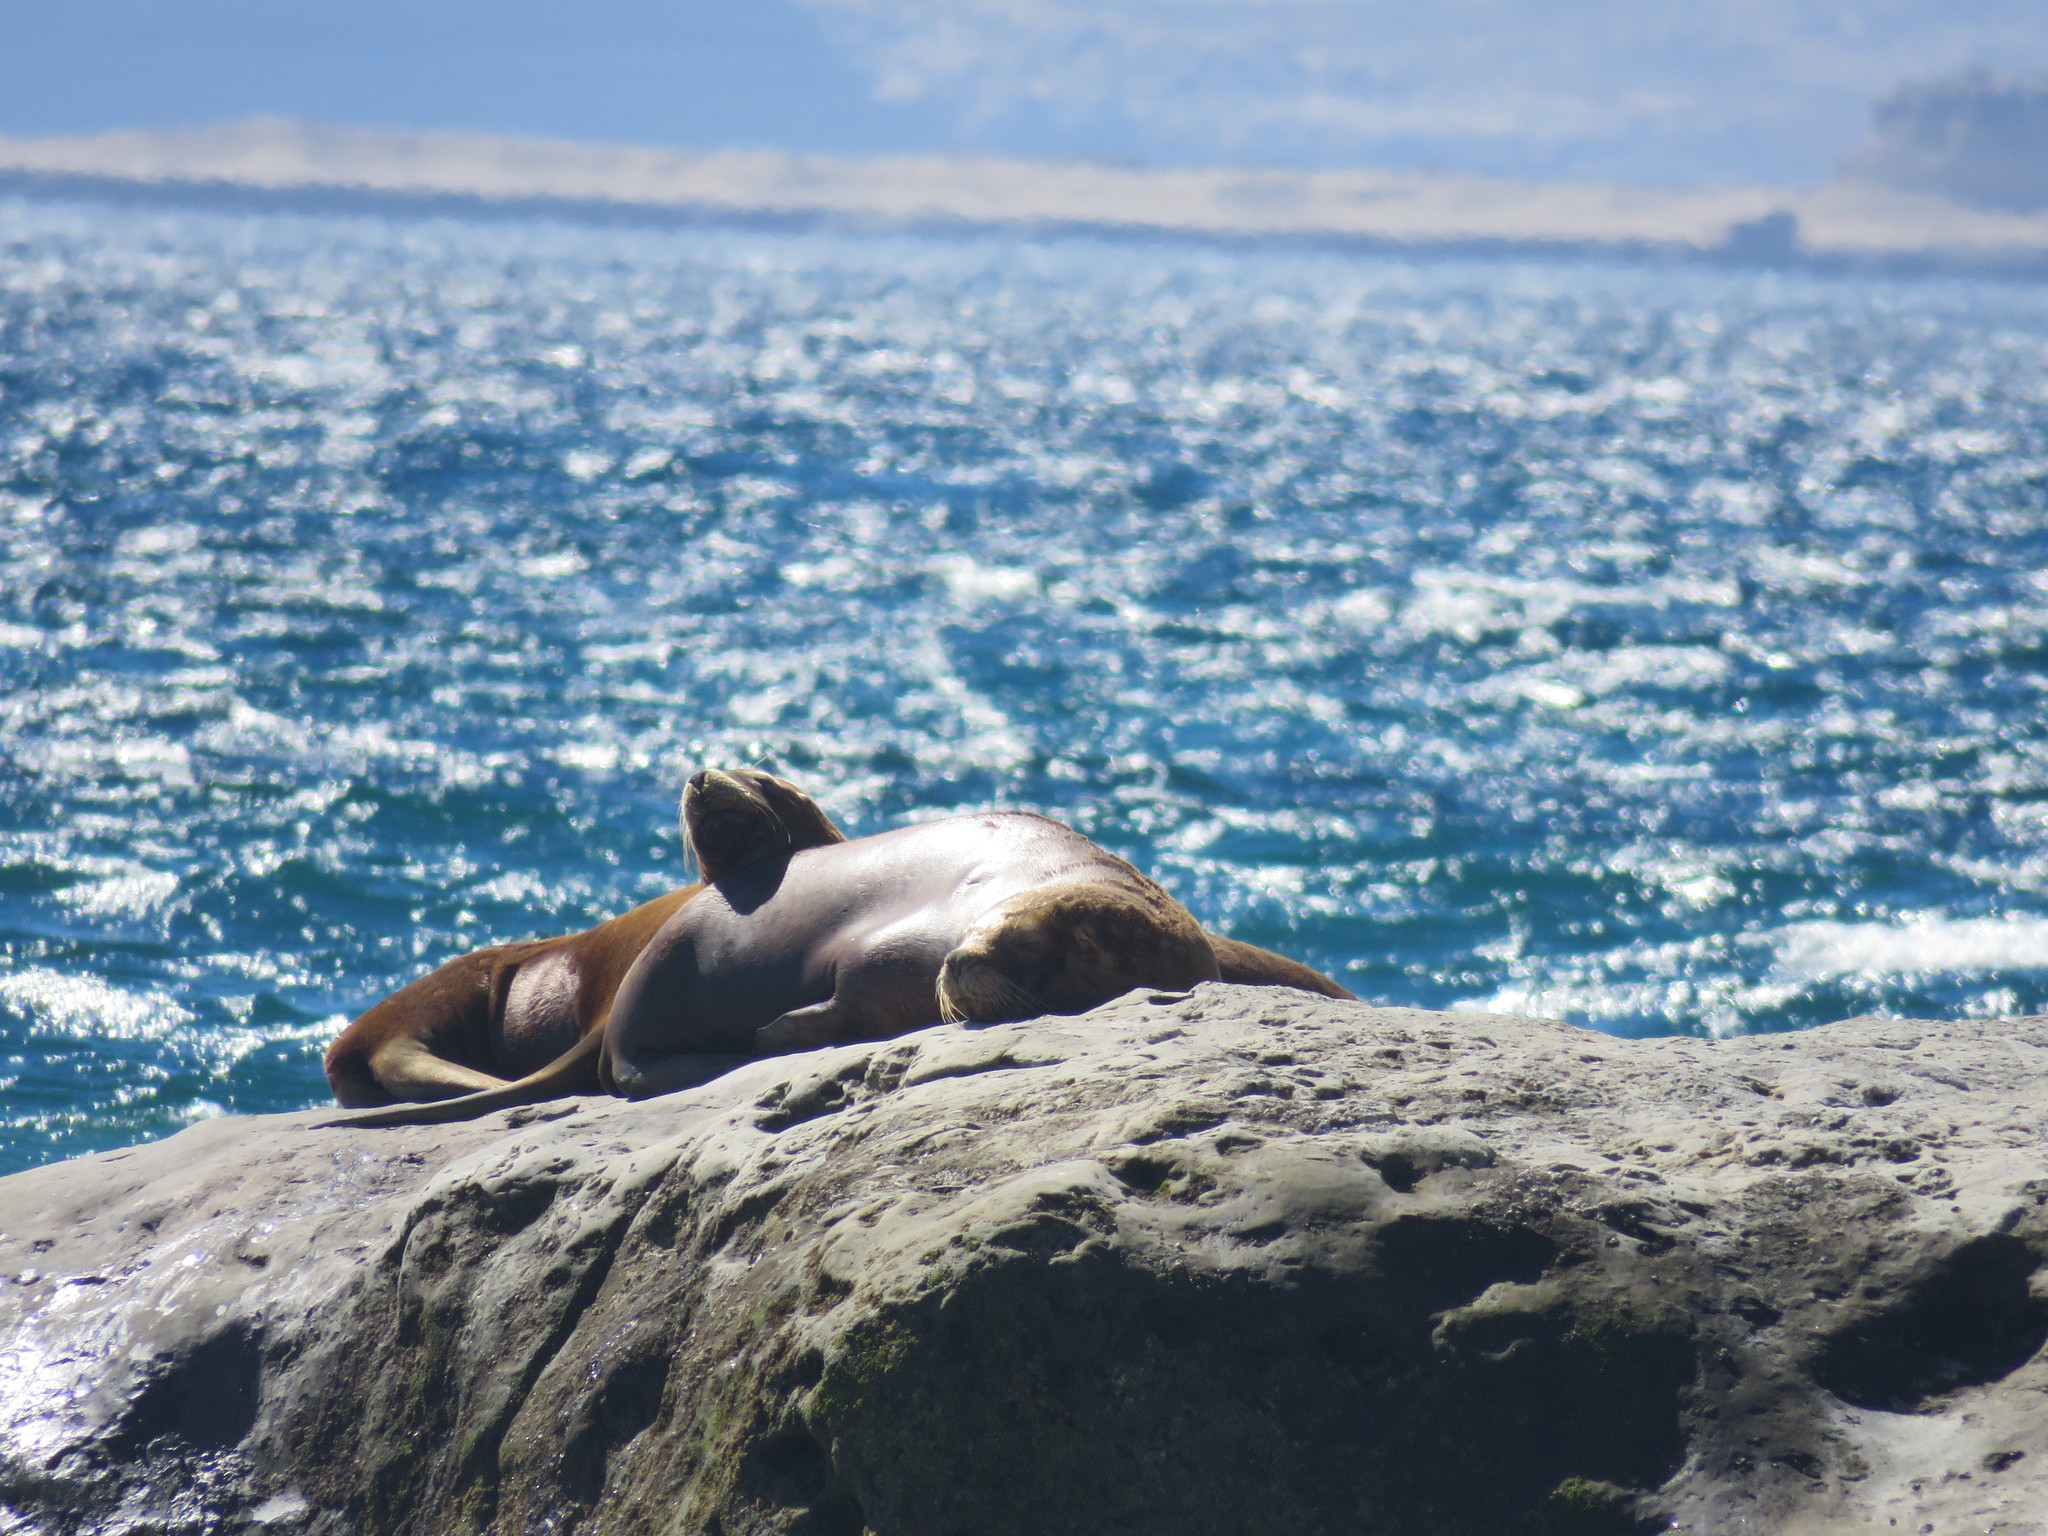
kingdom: Animalia
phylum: Chordata
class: Mammalia
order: Carnivora
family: Otariidae
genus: Otaria
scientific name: Otaria byronia
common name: South american sea lion
